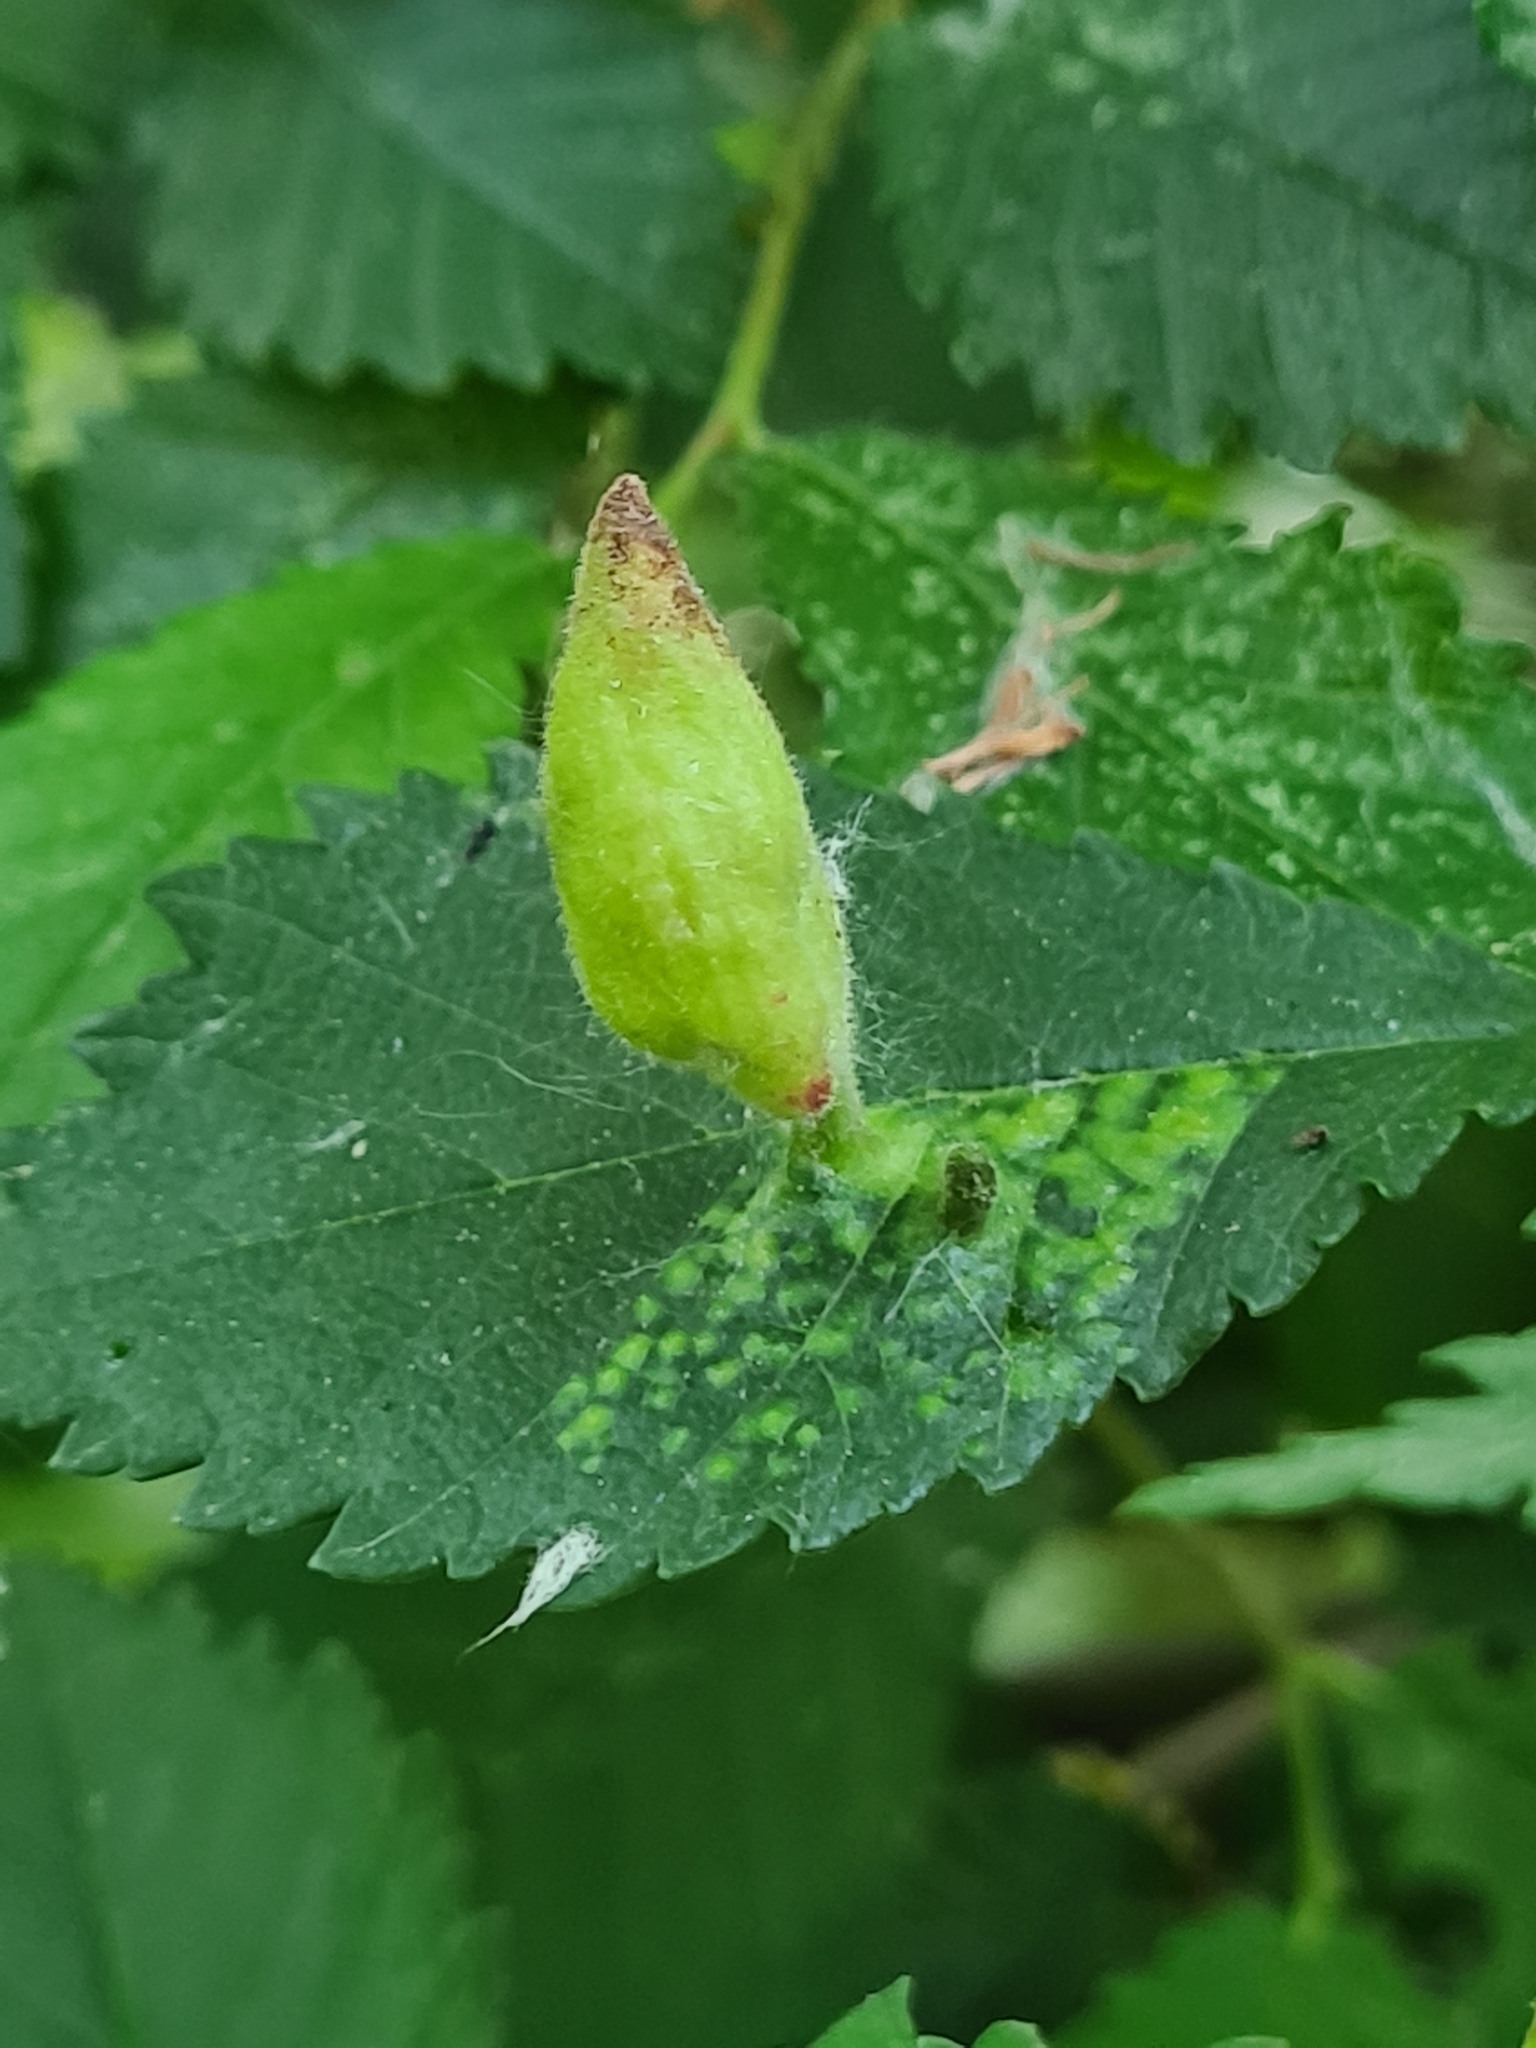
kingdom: Animalia
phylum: Arthropoda
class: Insecta
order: Hemiptera
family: Aphididae
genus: Tetraneura
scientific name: Tetraneura nigriabdominalis
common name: Aphid
